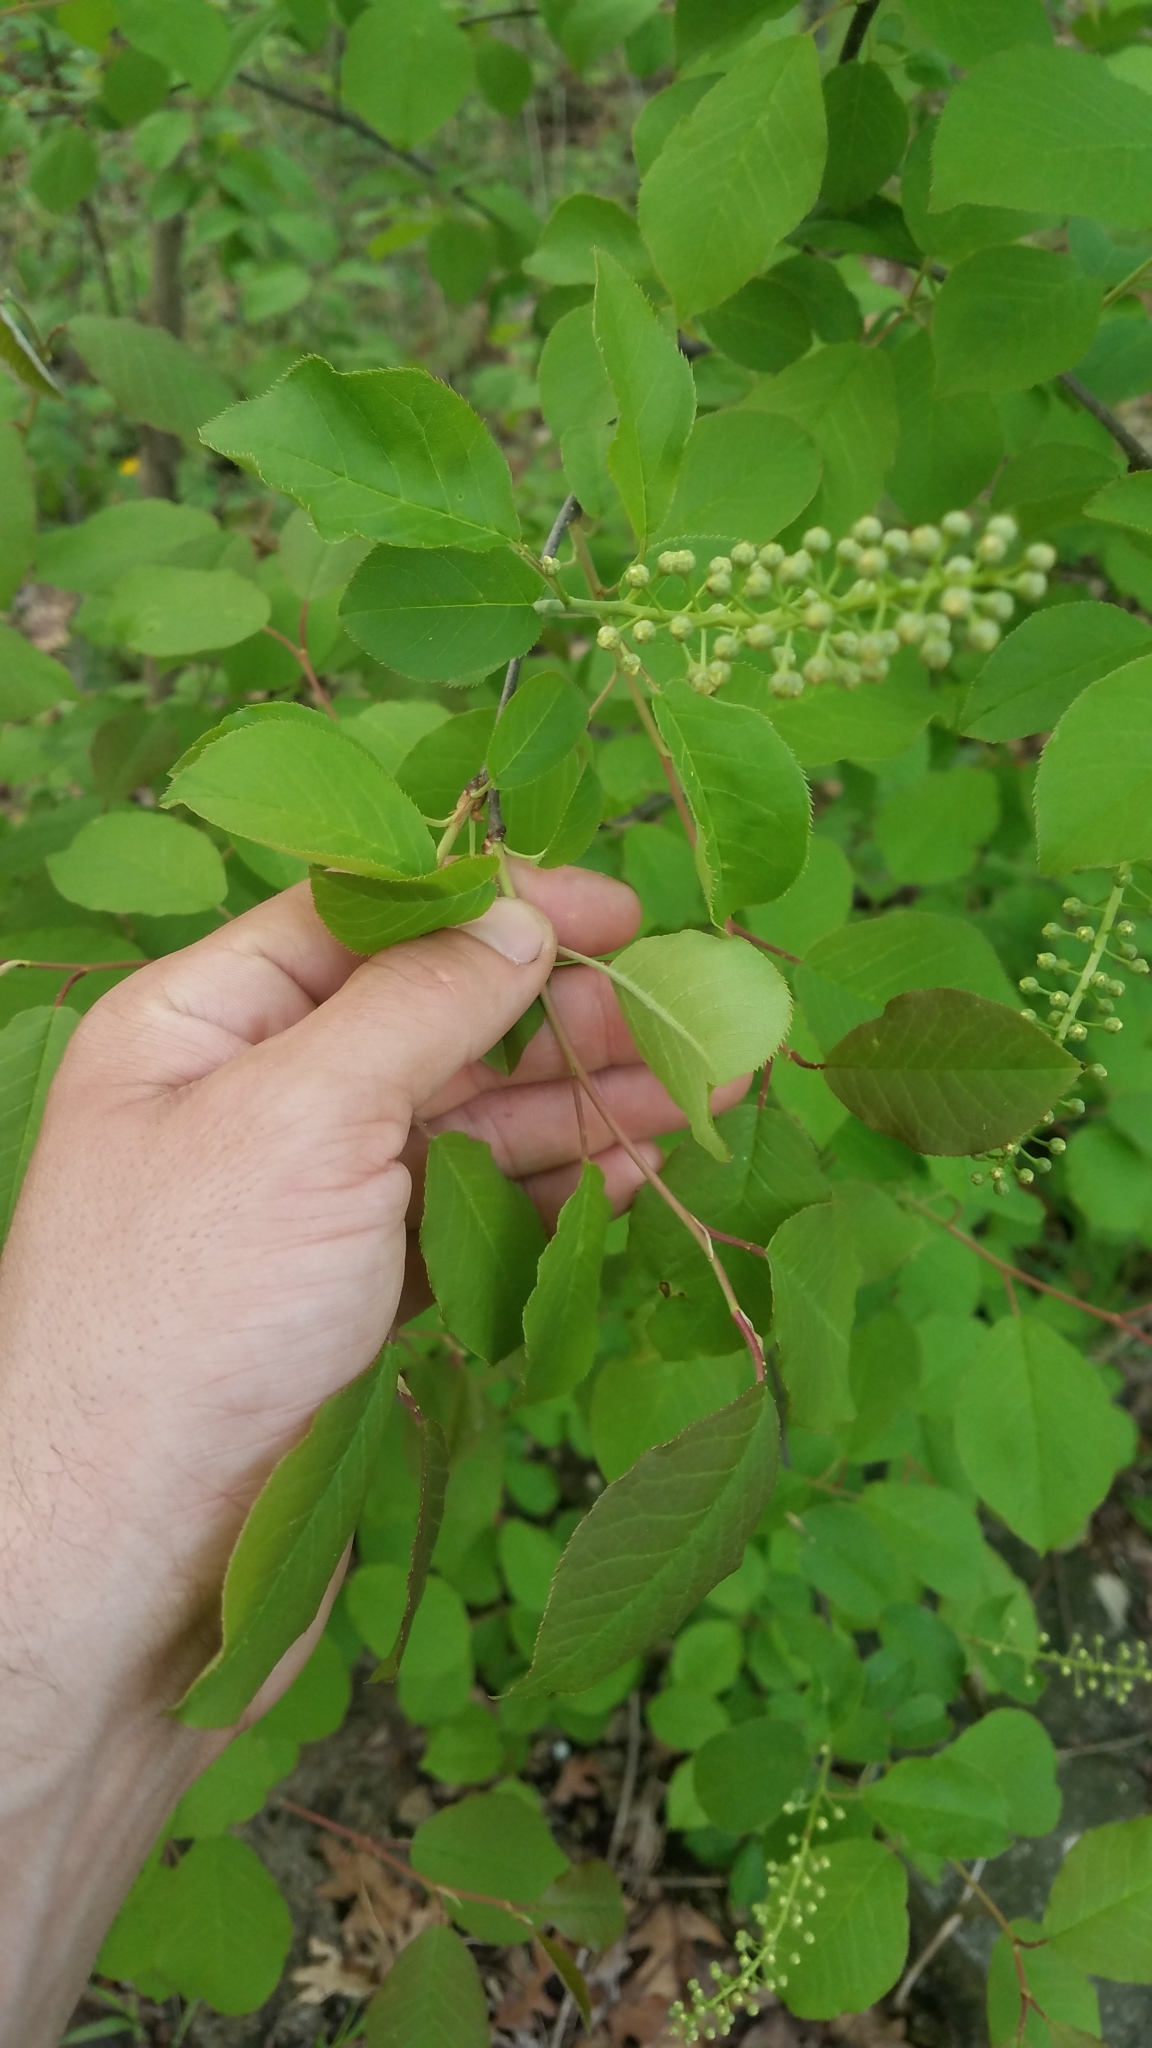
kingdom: Plantae
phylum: Tracheophyta
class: Magnoliopsida
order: Rosales
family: Rosaceae
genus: Prunus
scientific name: Prunus virginiana
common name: Chokecherry
